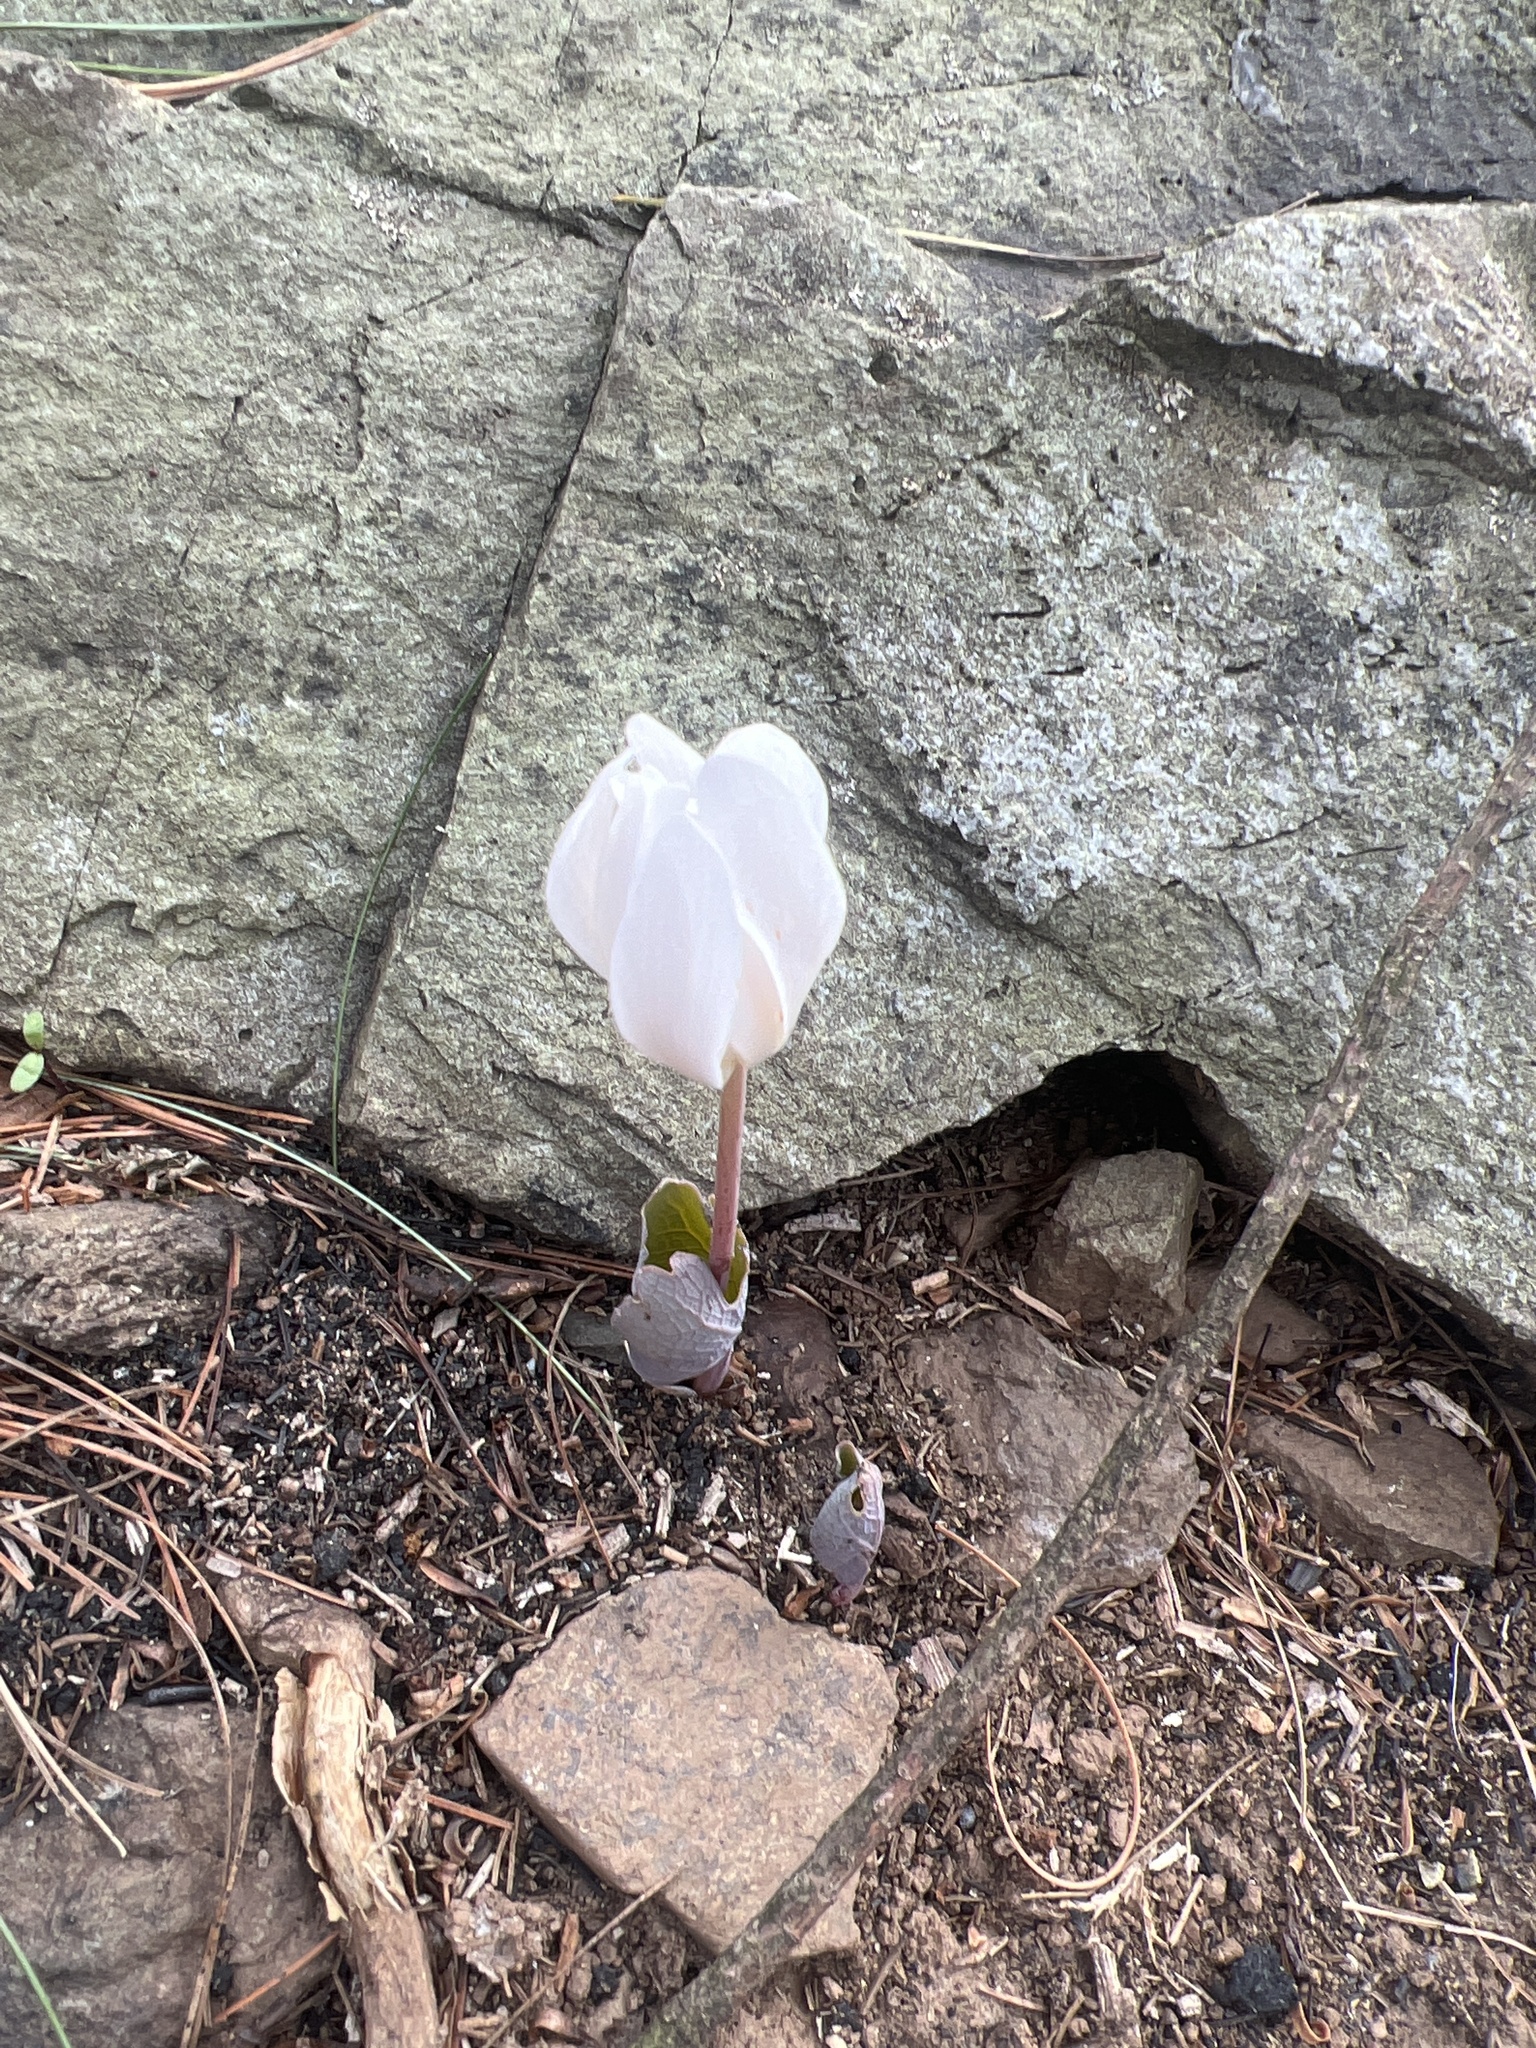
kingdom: Plantae
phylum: Tracheophyta
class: Magnoliopsida
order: Ranunculales
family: Papaveraceae
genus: Sanguinaria
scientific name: Sanguinaria canadensis
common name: Bloodroot
